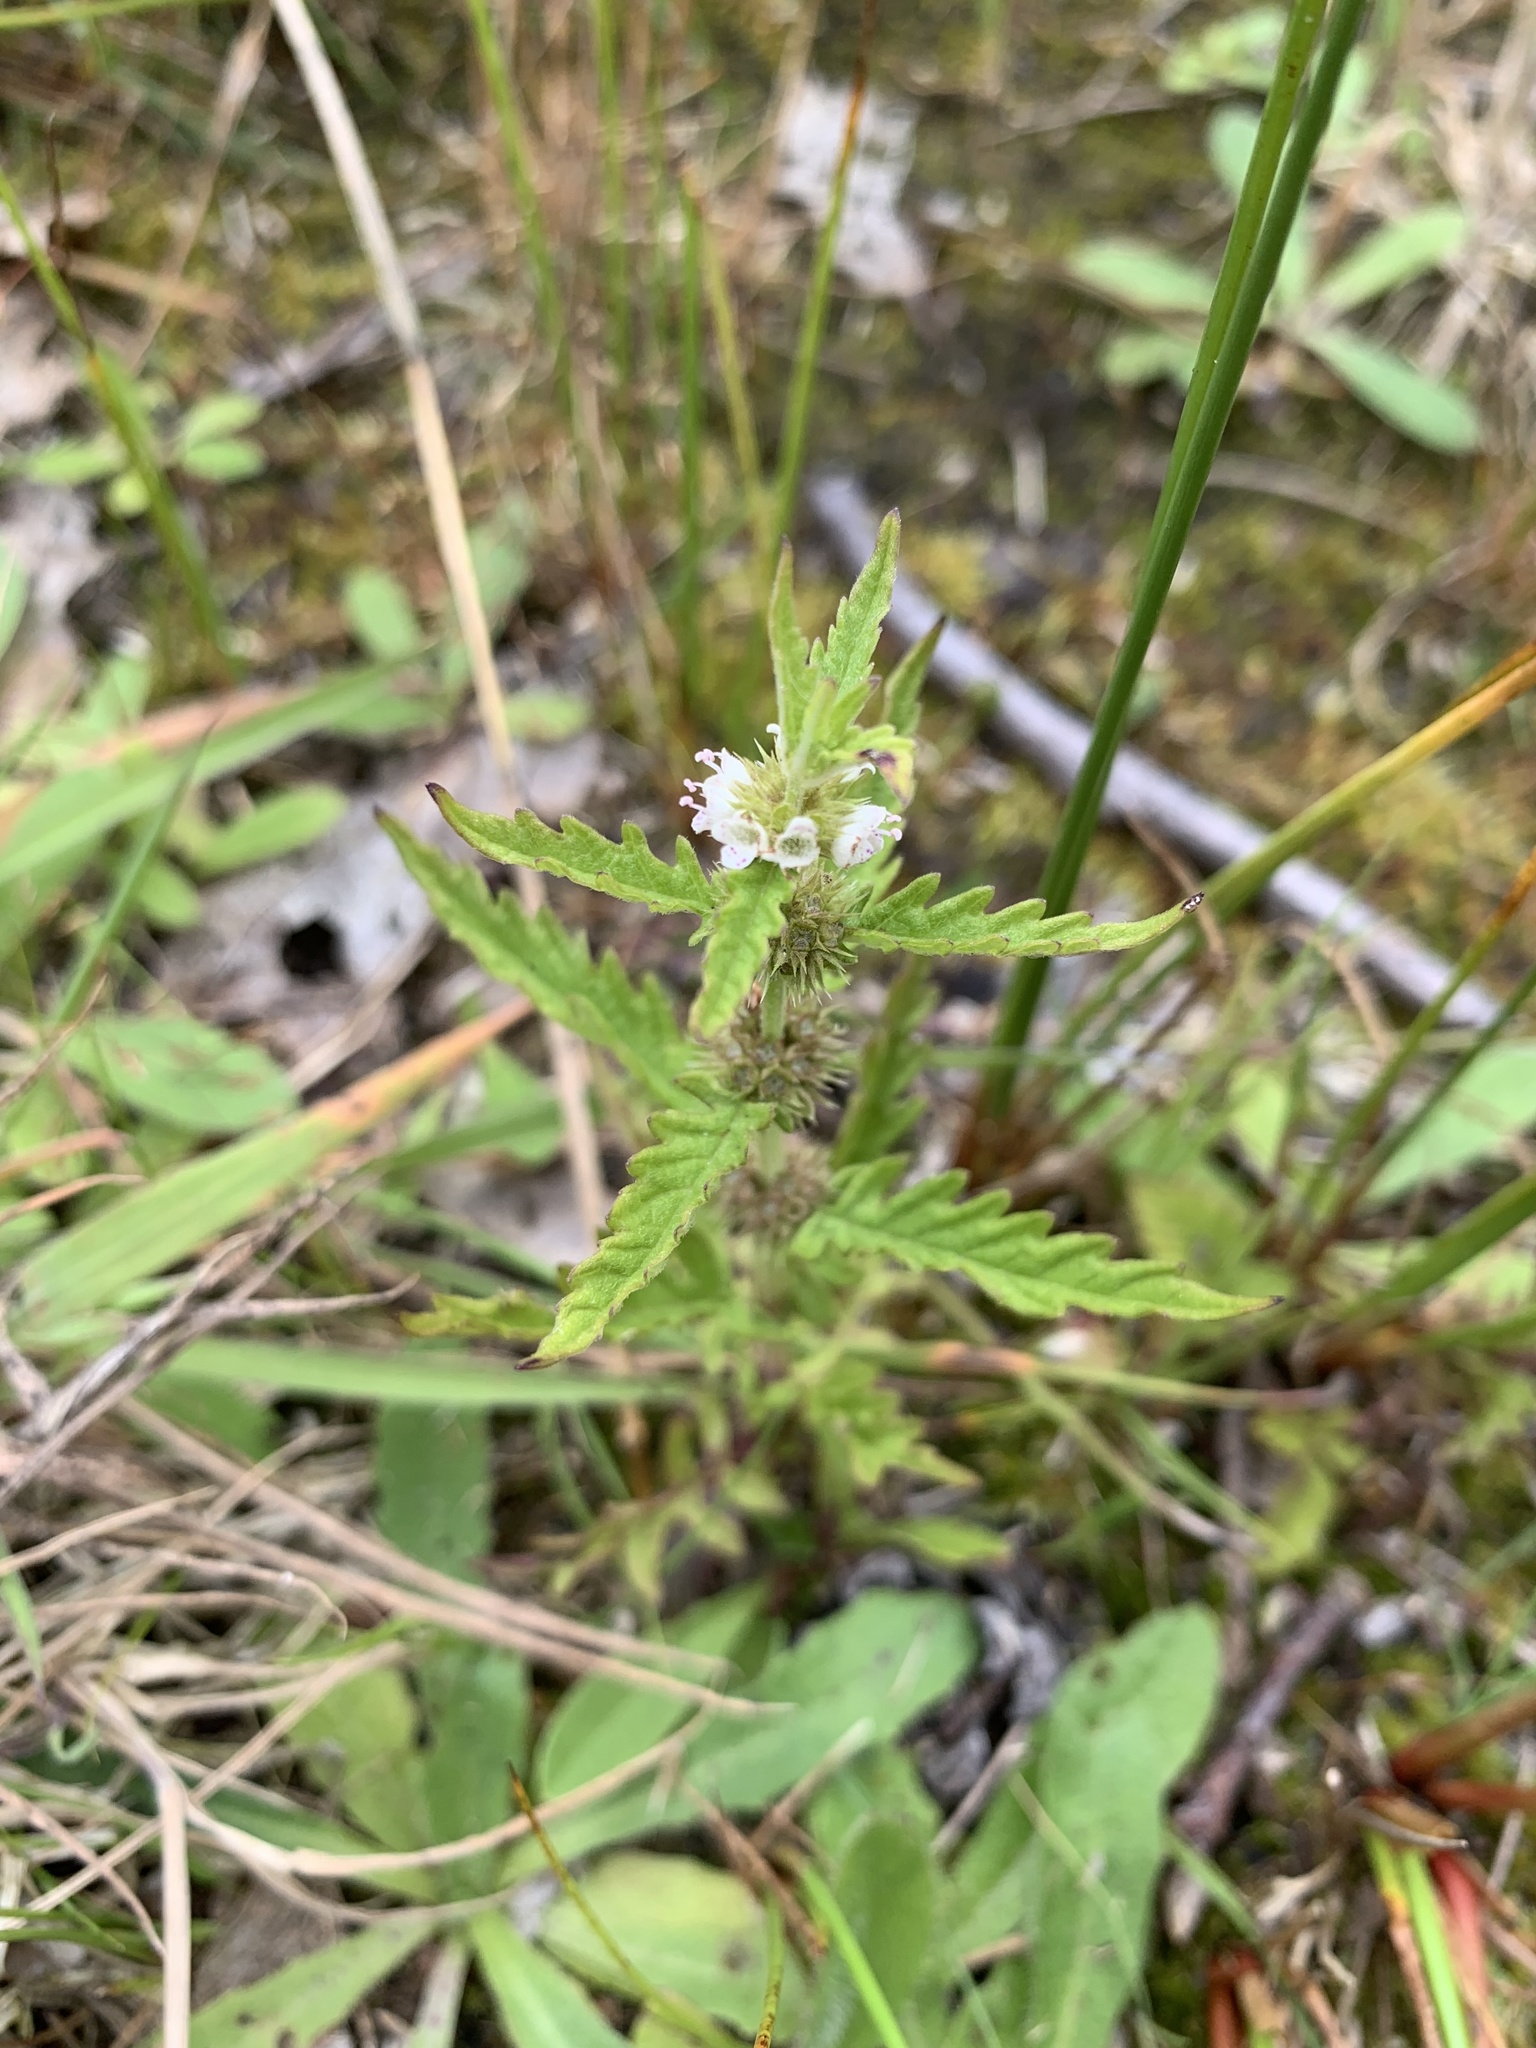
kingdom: Plantae
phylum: Tracheophyta
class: Magnoliopsida
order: Lamiales
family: Lamiaceae
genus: Lycopus
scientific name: Lycopus europaeus
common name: European bugleweed
